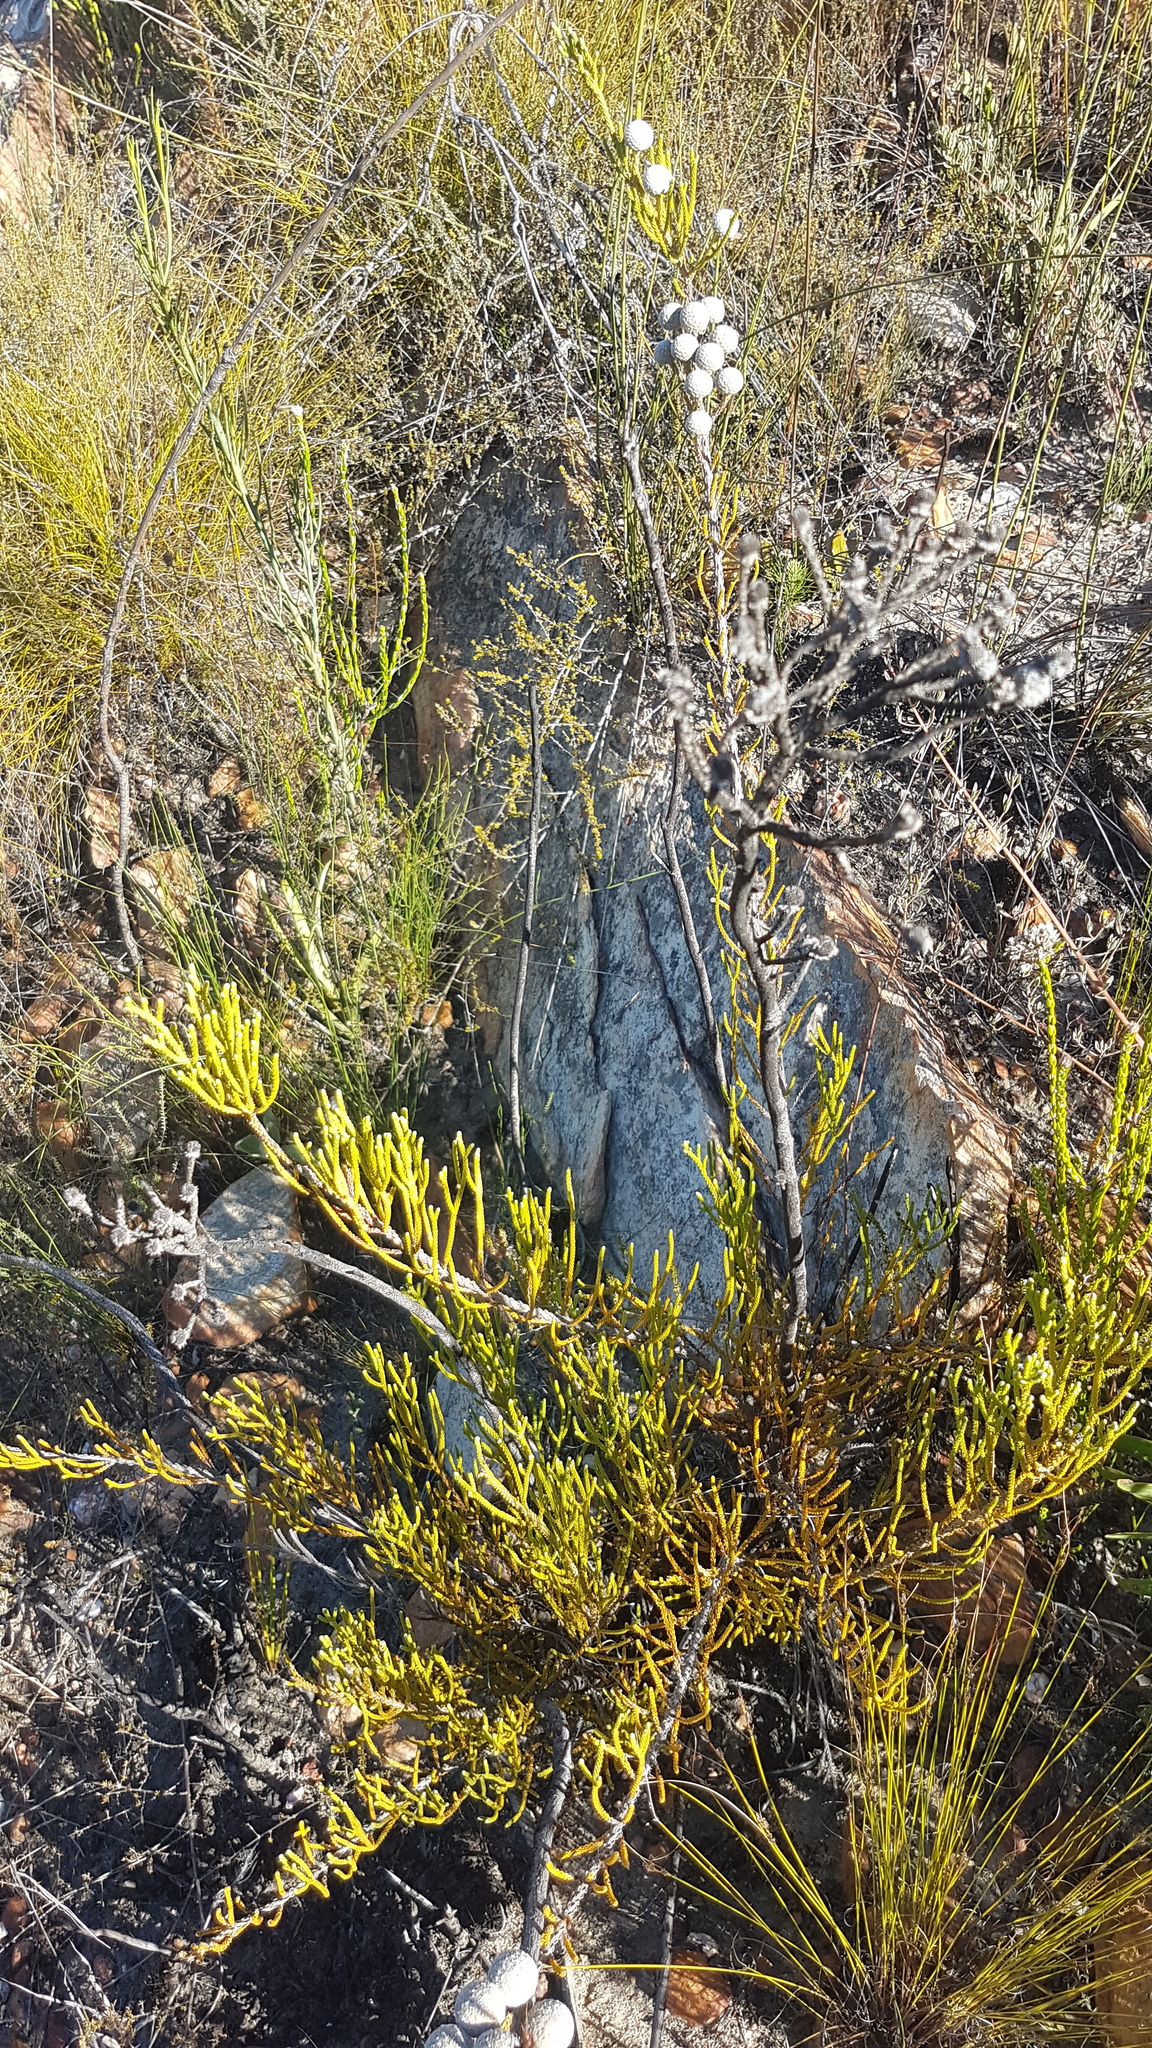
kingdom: Plantae
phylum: Tracheophyta
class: Magnoliopsida
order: Bruniales
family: Bruniaceae
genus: Brunia
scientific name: Brunia noduliflora
